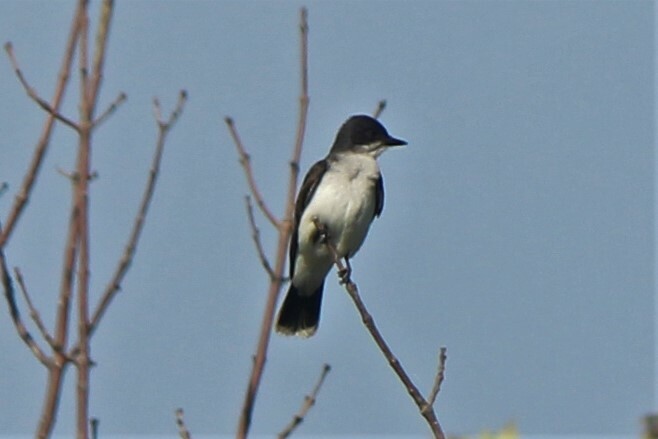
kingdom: Animalia
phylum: Chordata
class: Aves
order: Passeriformes
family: Tyrannidae
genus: Tyrannus
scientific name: Tyrannus tyrannus
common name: Eastern kingbird
